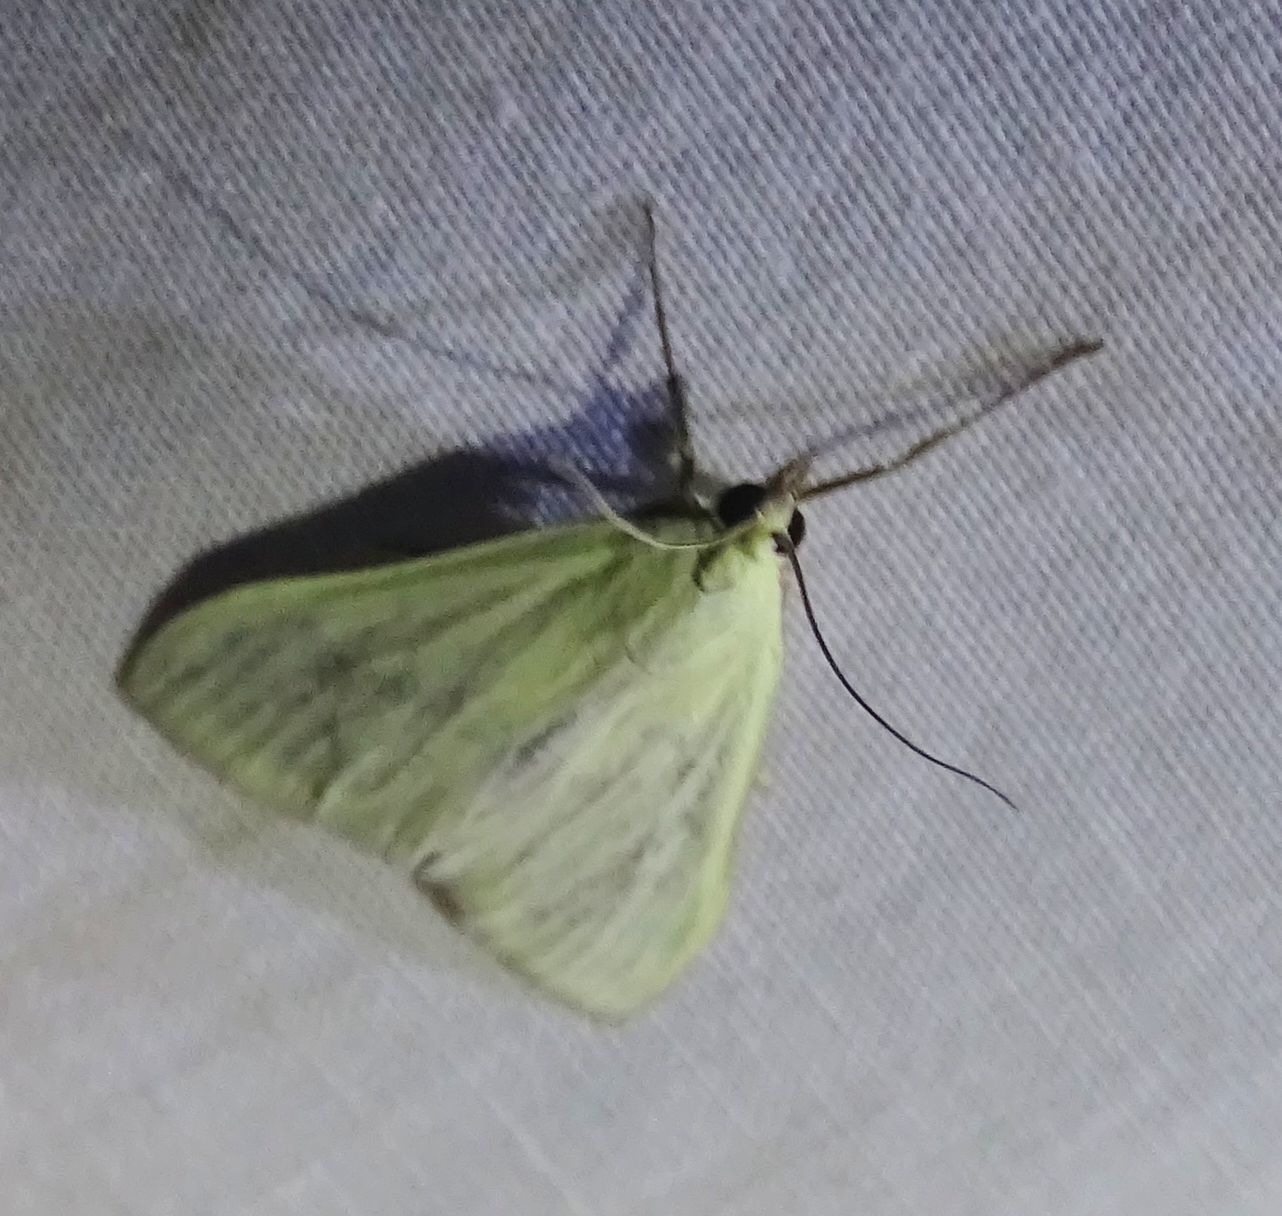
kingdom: Animalia
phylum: Arthropoda
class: Insecta
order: Lepidoptera
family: Crambidae
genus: Sitochroa
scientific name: Sitochroa palealis
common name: Greenish-yellow sitochroa moth
